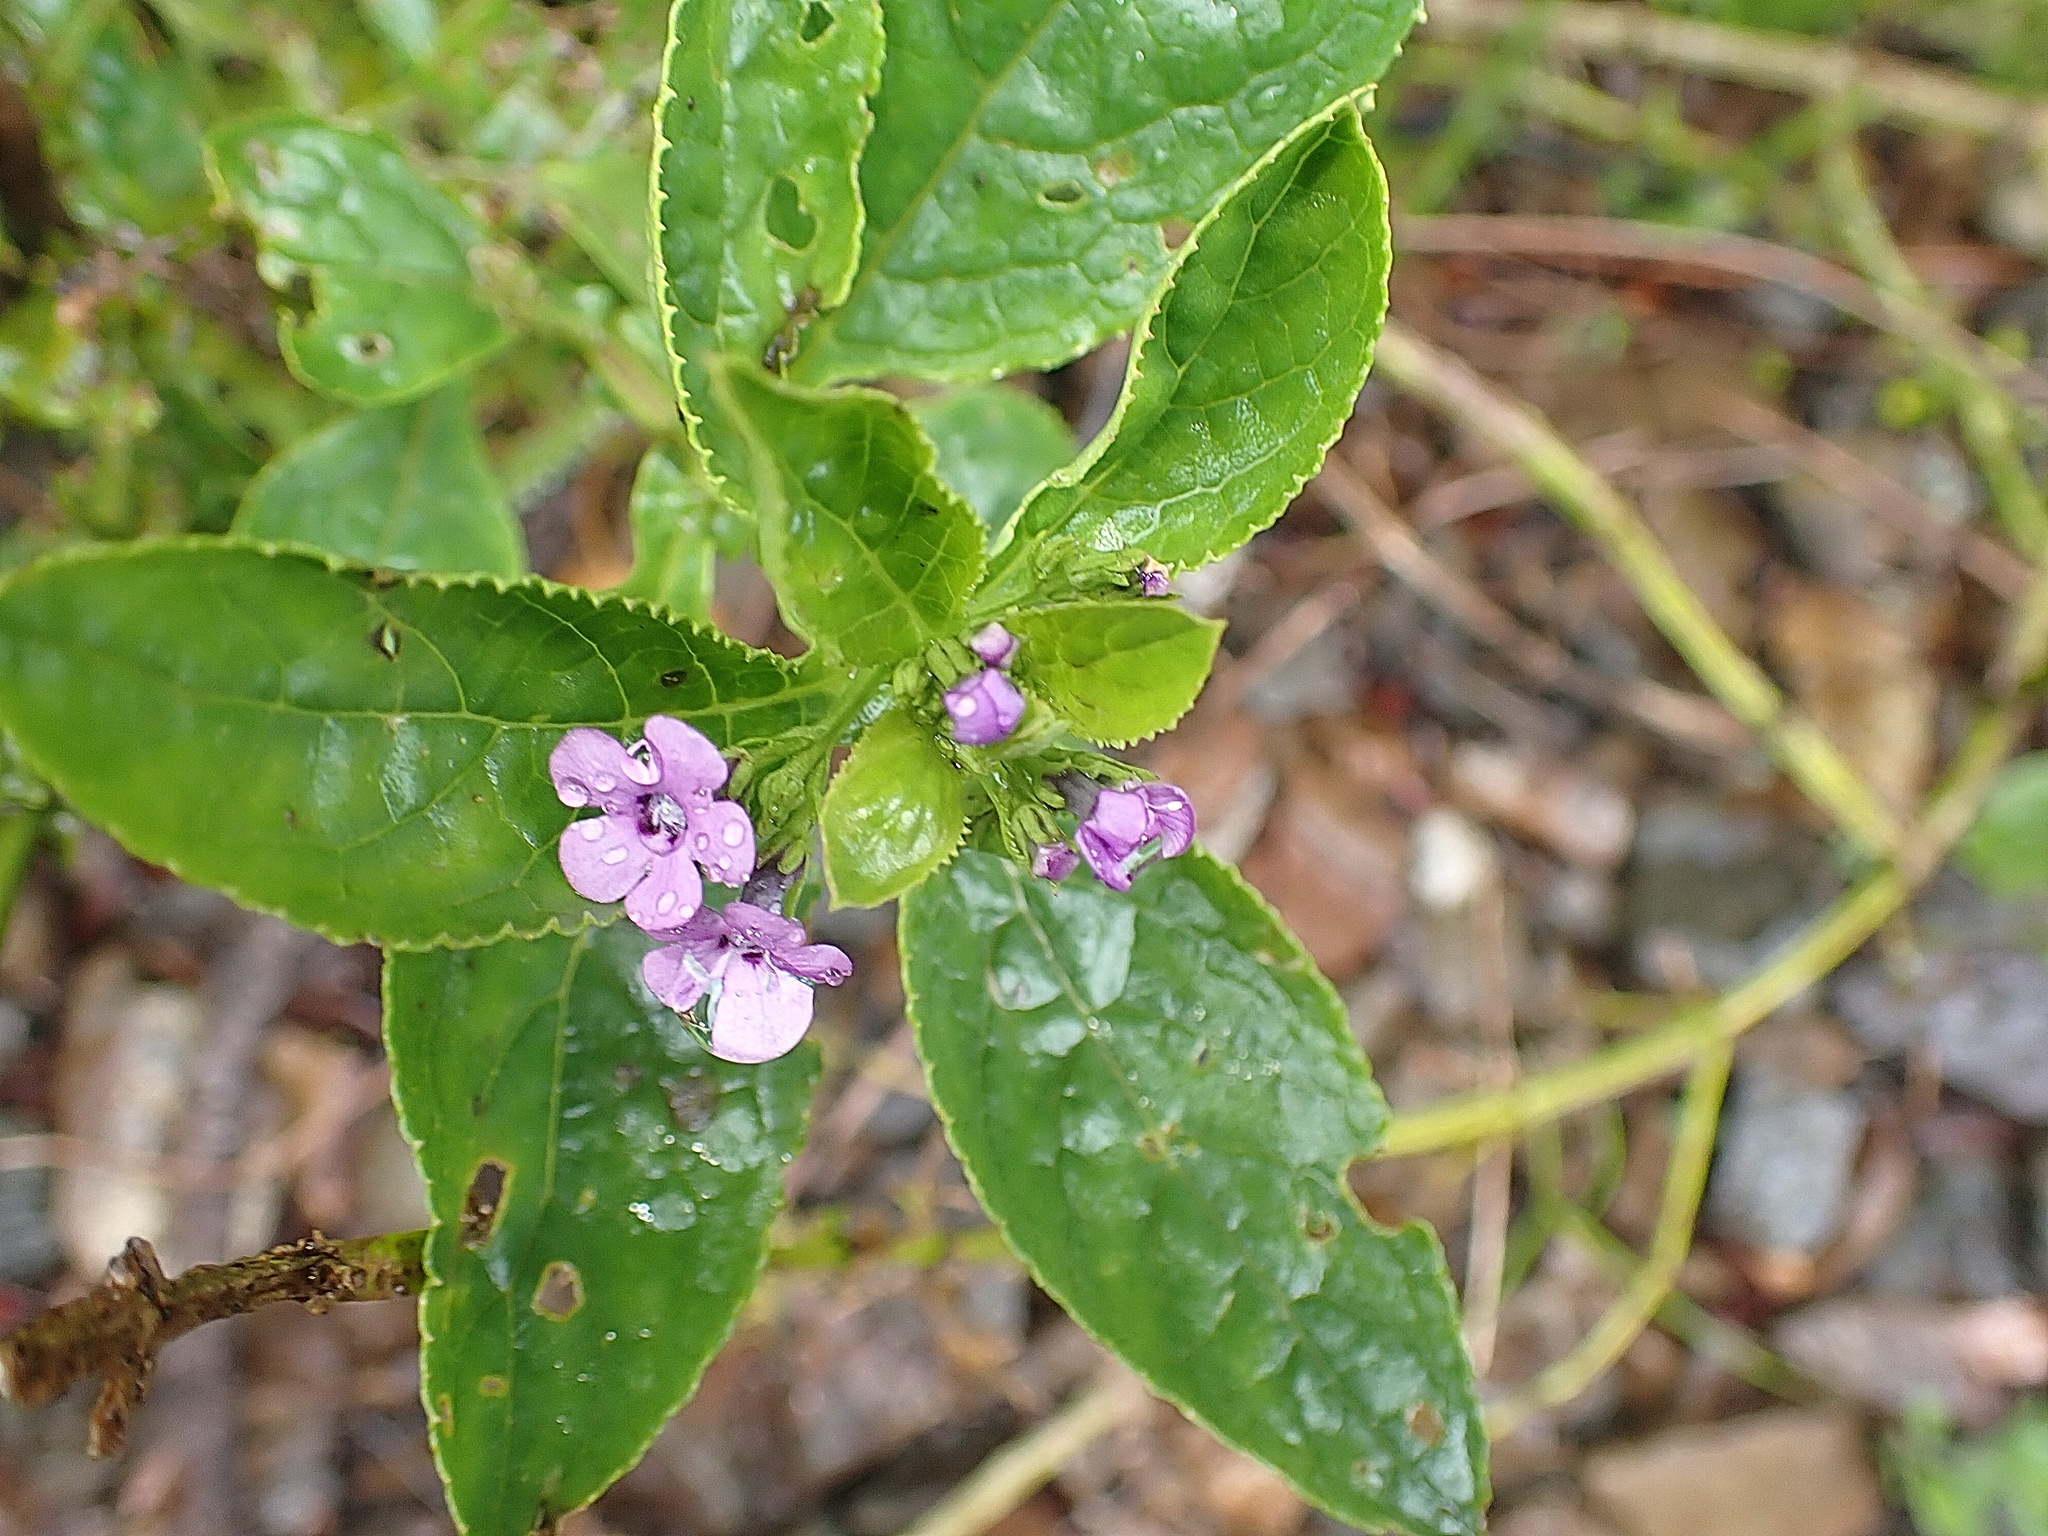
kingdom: Plantae
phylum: Tracheophyta
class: Magnoliopsida
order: Lamiales
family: Scrophulariaceae
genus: Teedia
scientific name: Teedia lucida
